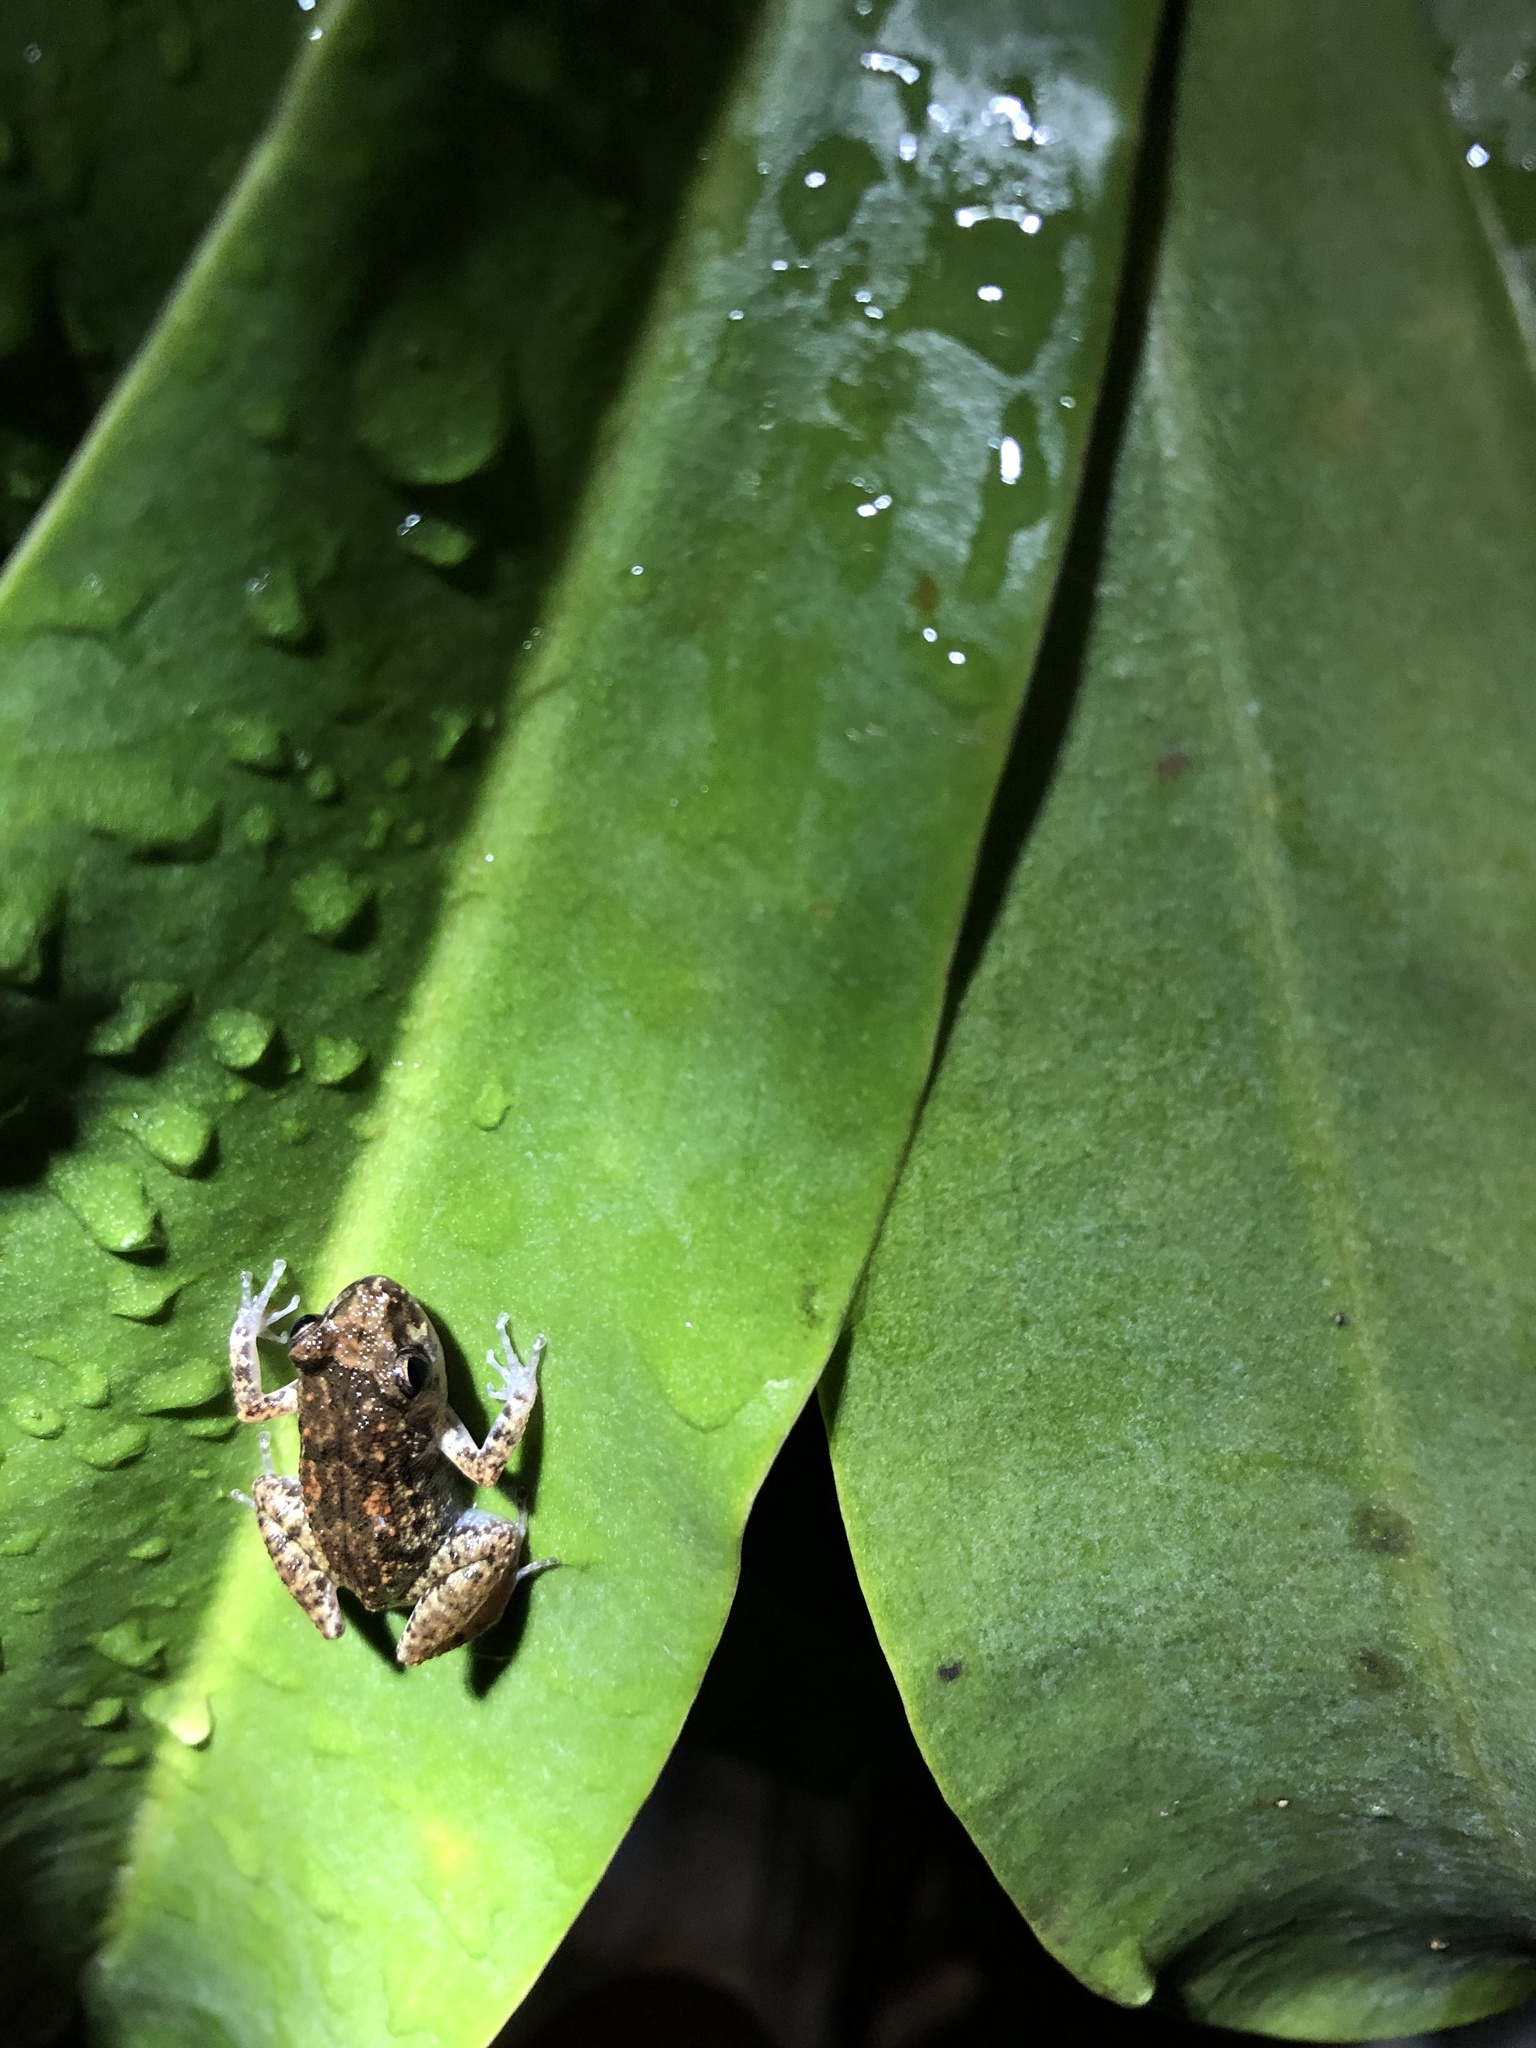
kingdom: Animalia
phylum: Chordata
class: Amphibia
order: Anura
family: Eleutherodactylidae
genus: Eleutherodactylus
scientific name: Eleutherodactylus planirostris
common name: Greenhouse frog
